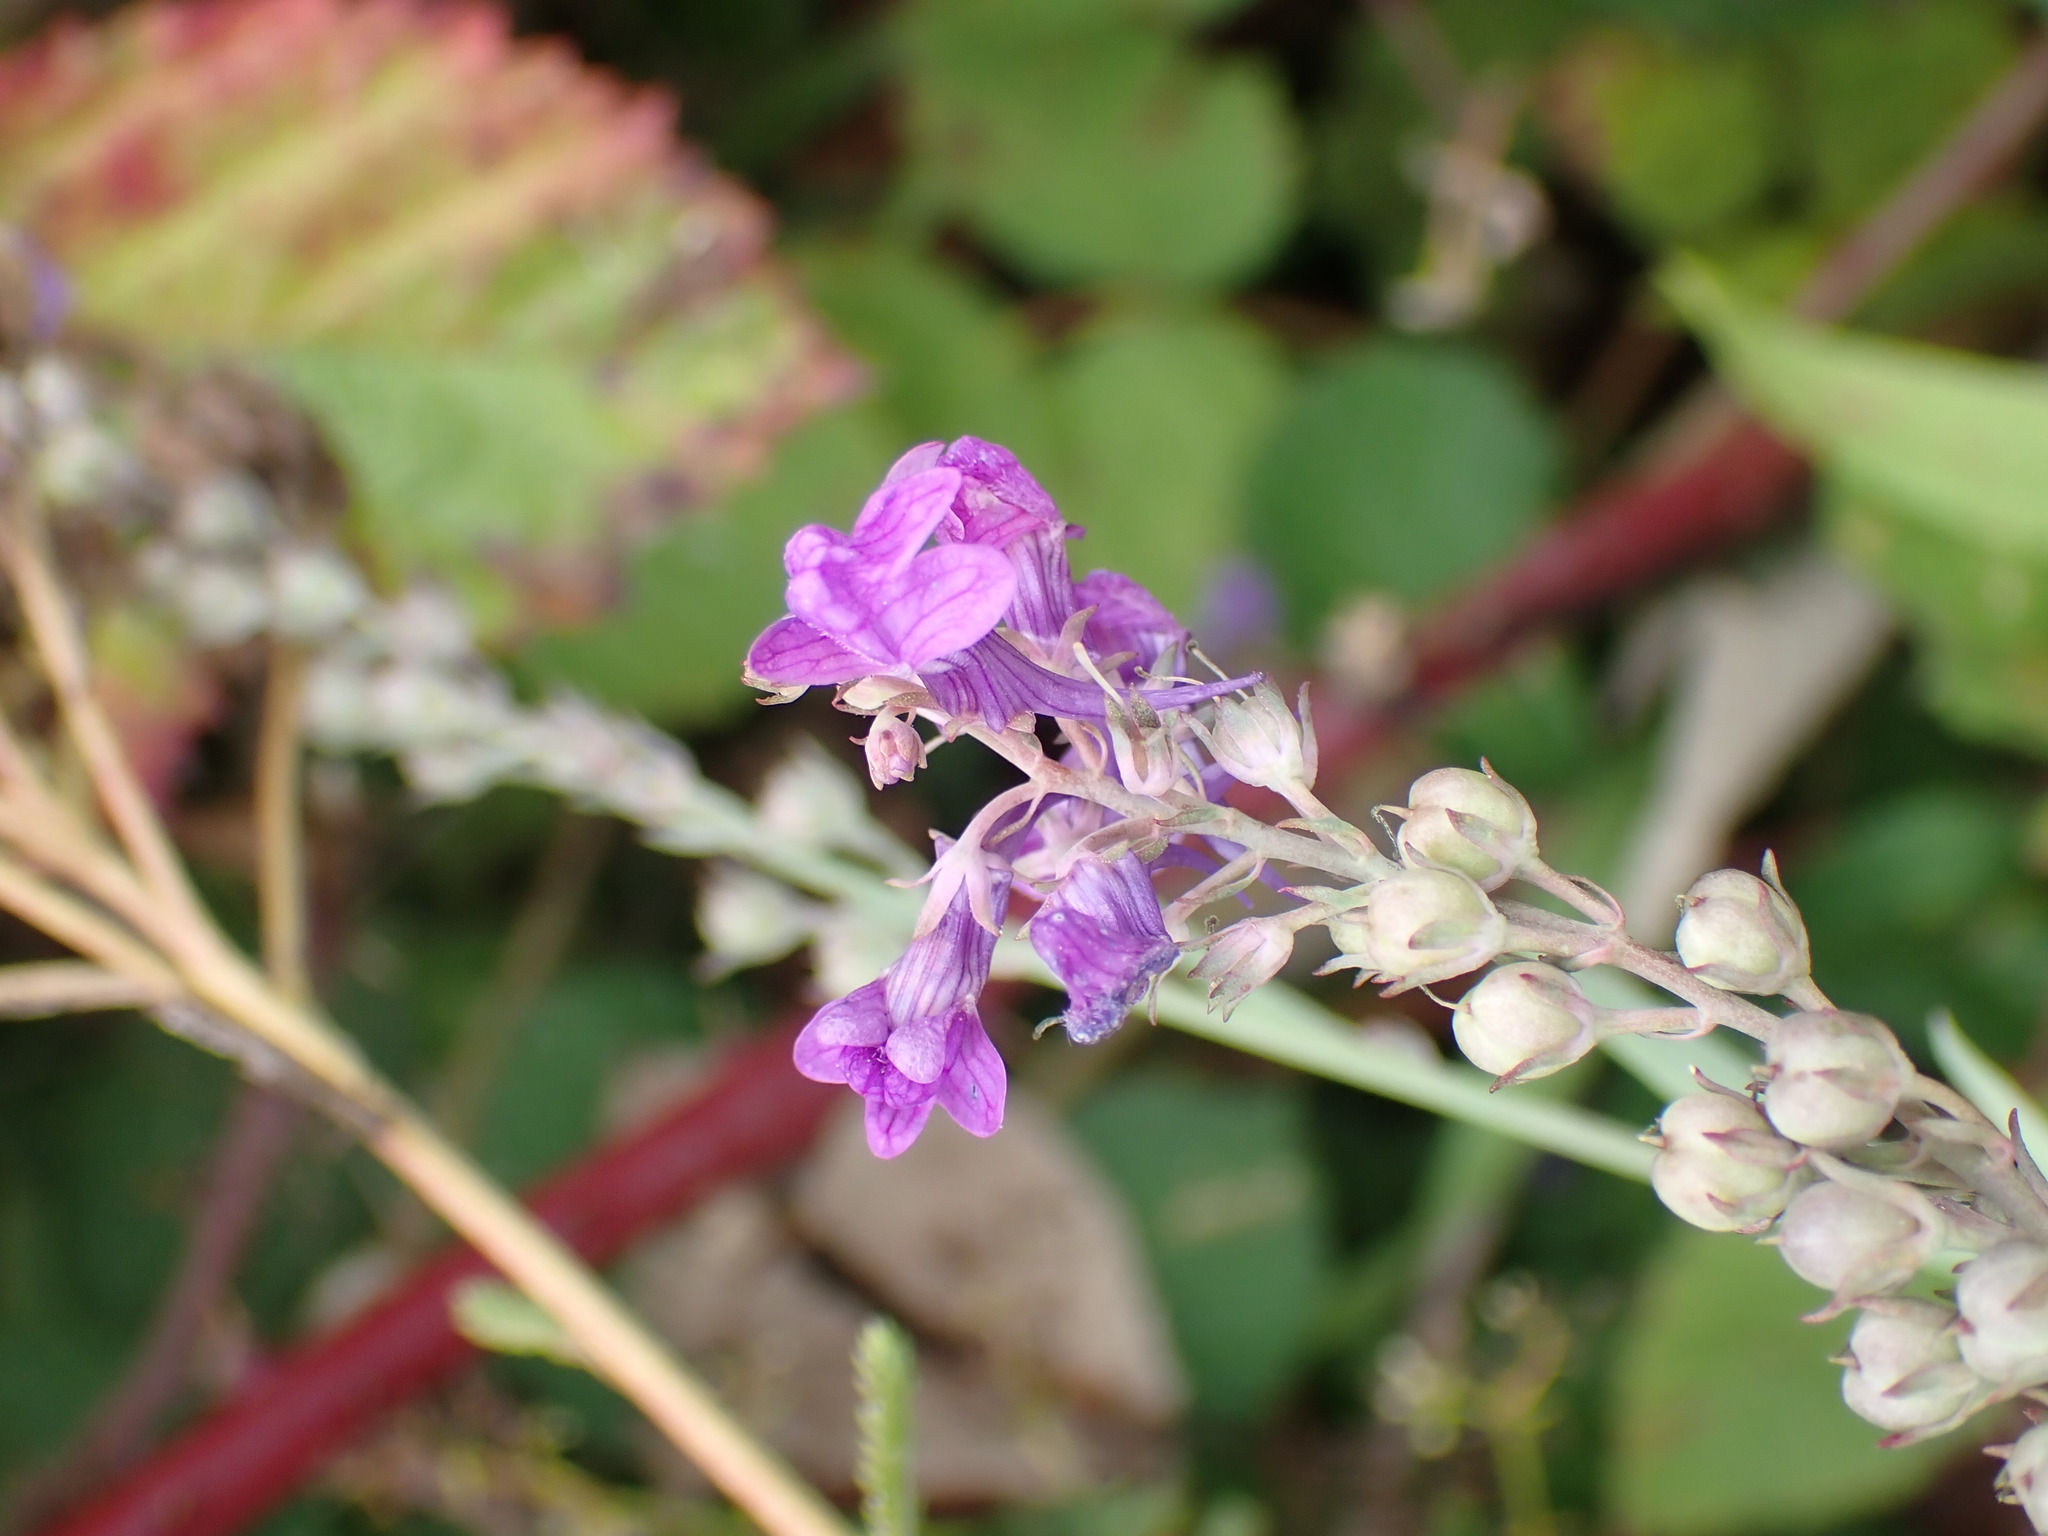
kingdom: Plantae
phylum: Tracheophyta
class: Magnoliopsida
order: Lamiales
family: Plantaginaceae
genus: Linaria
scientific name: Linaria purpurea
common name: Purple toadflax
